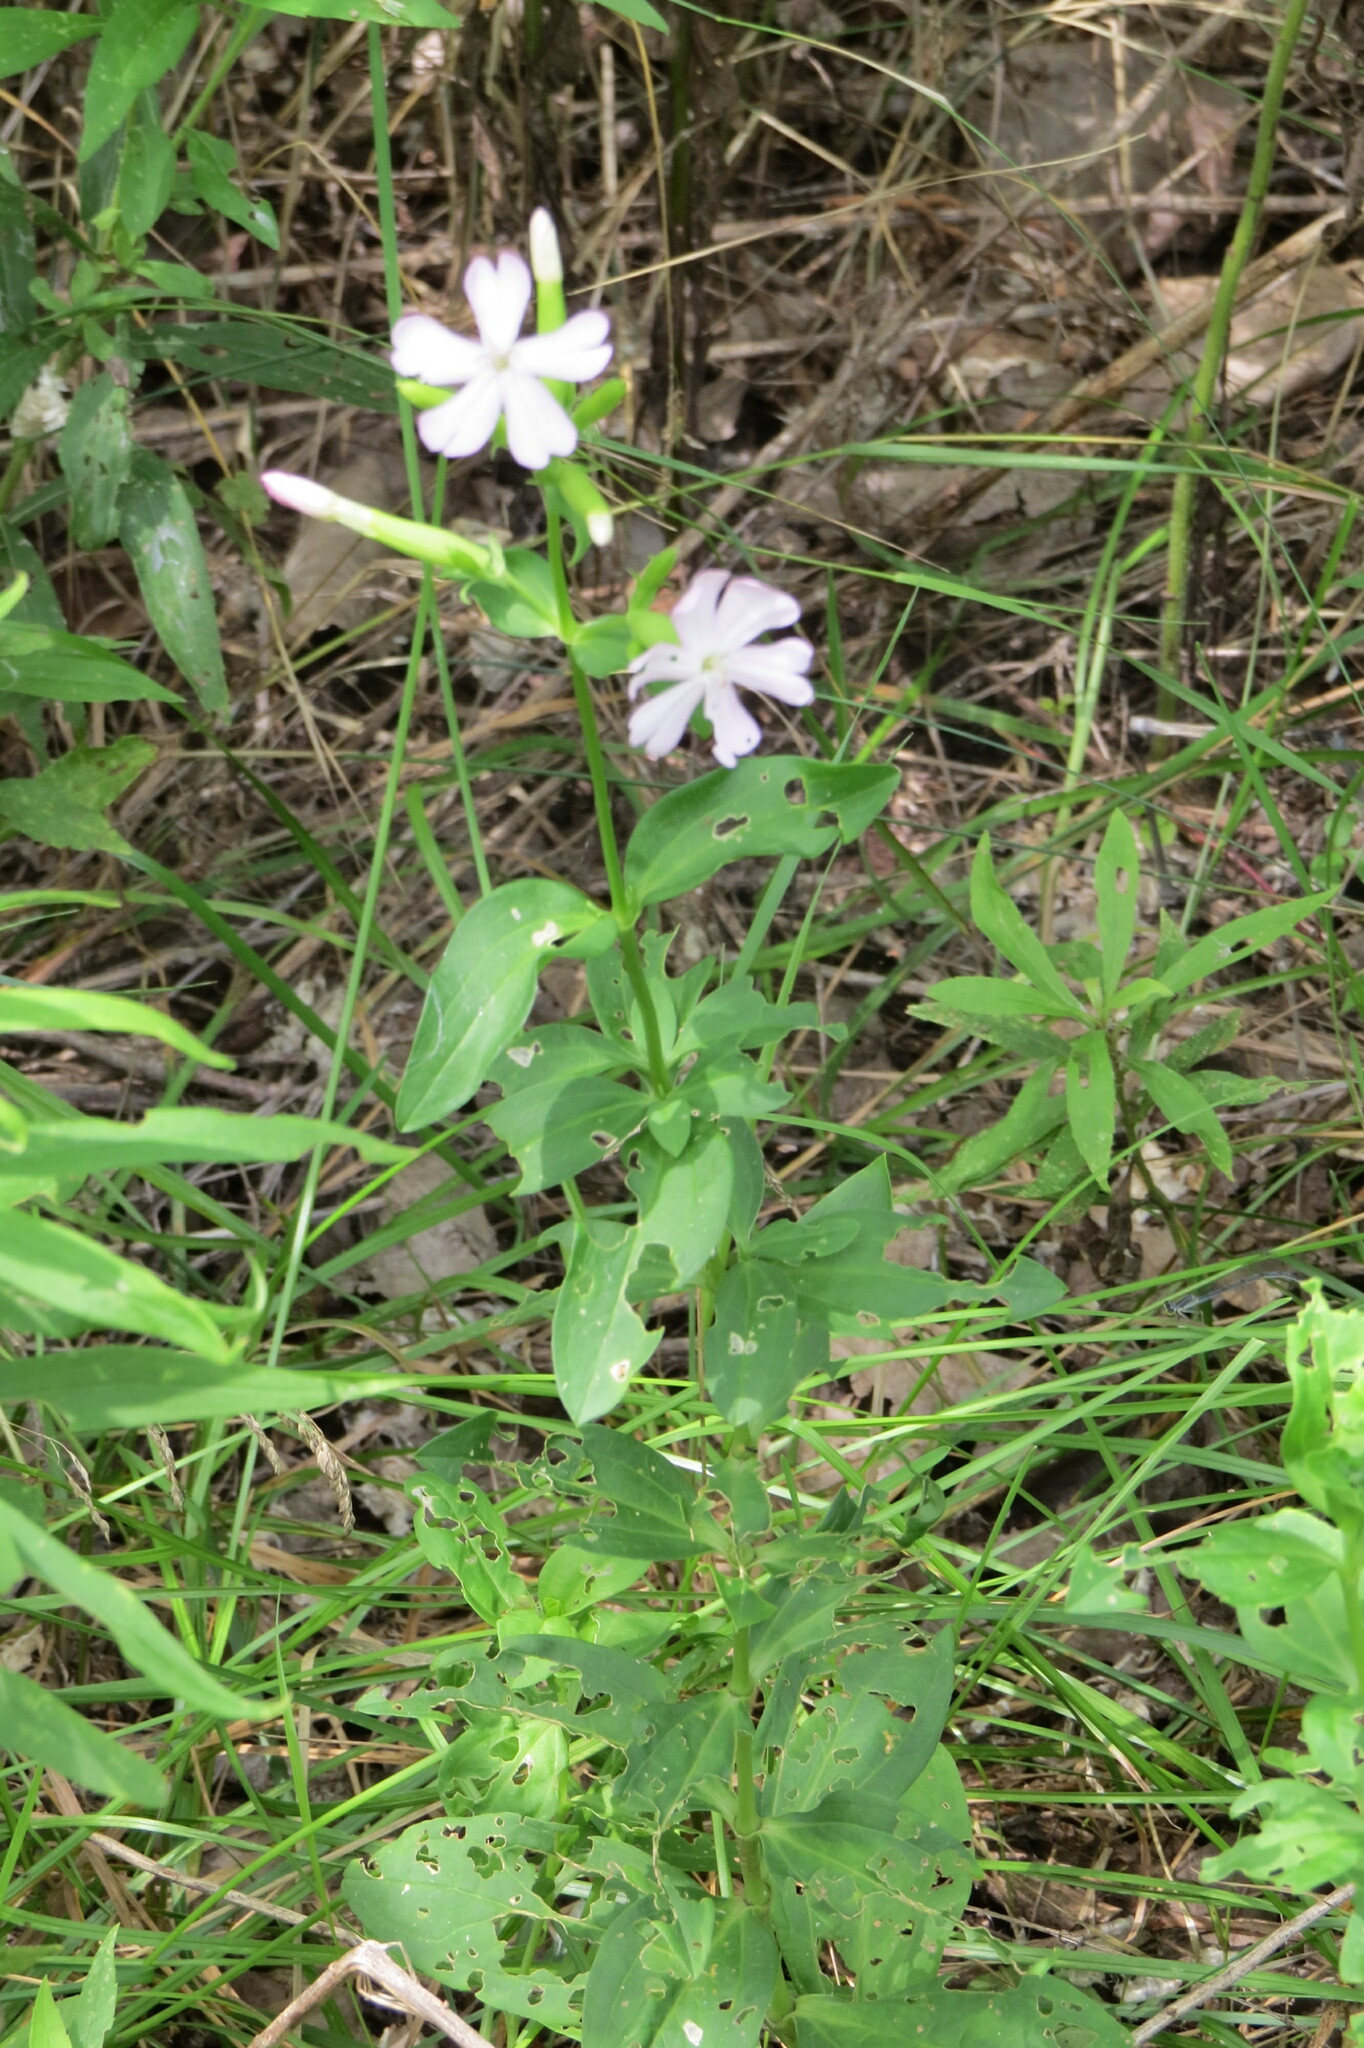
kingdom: Plantae
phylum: Tracheophyta
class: Magnoliopsida
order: Caryophyllales
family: Caryophyllaceae
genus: Saponaria
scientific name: Saponaria officinalis
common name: Soapwort
